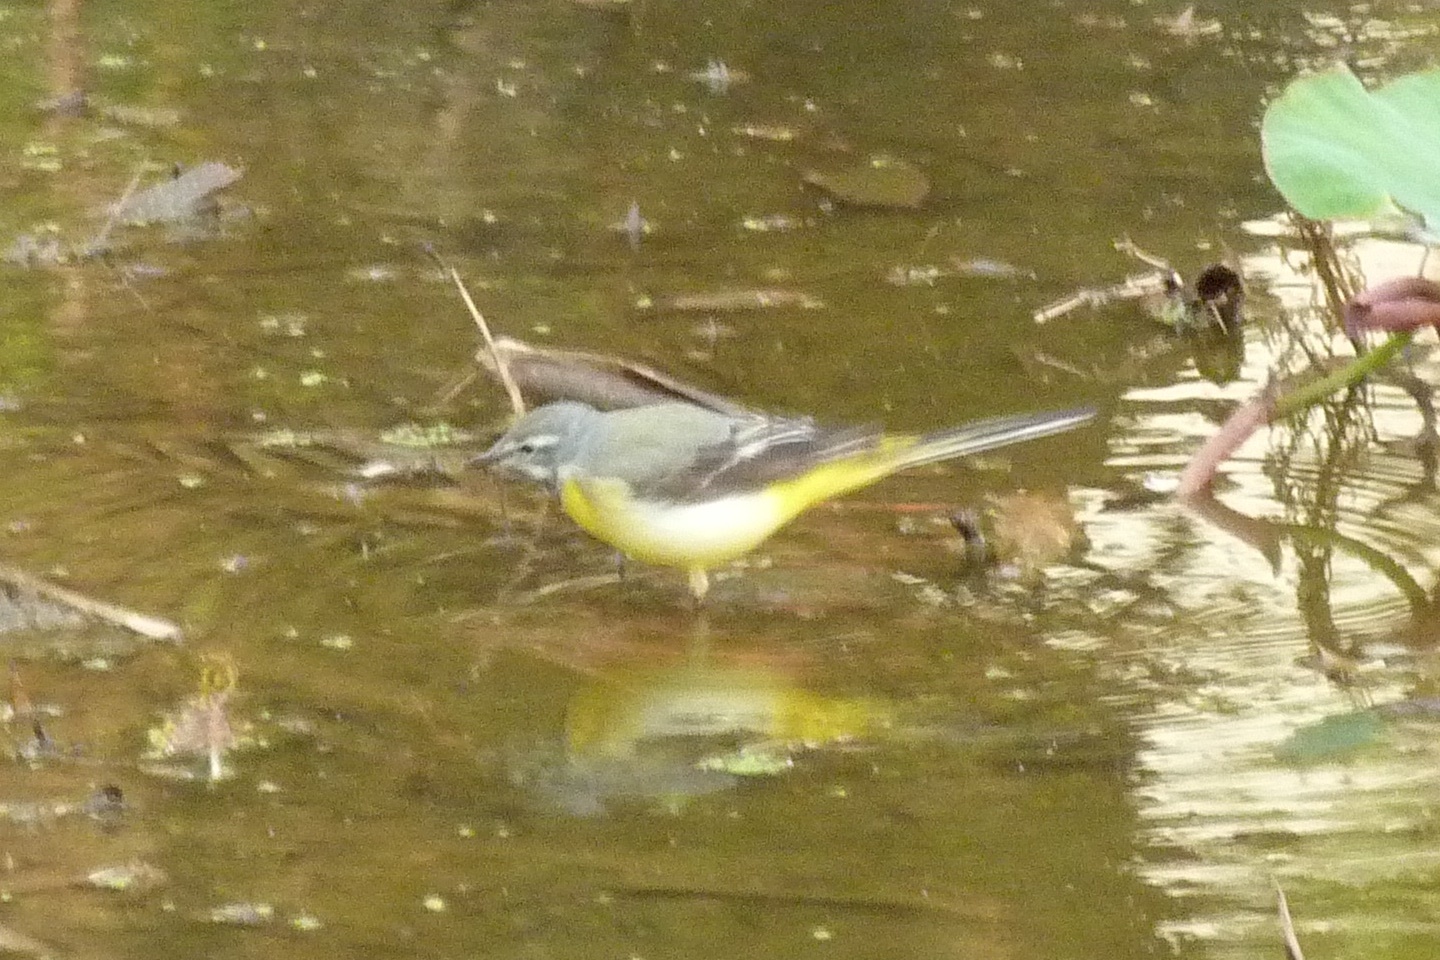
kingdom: Animalia
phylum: Chordata
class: Aves
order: Passeriformes
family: Motacillidae
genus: Motacilla
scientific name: Motacilla cinerea
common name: Grey wagtail
